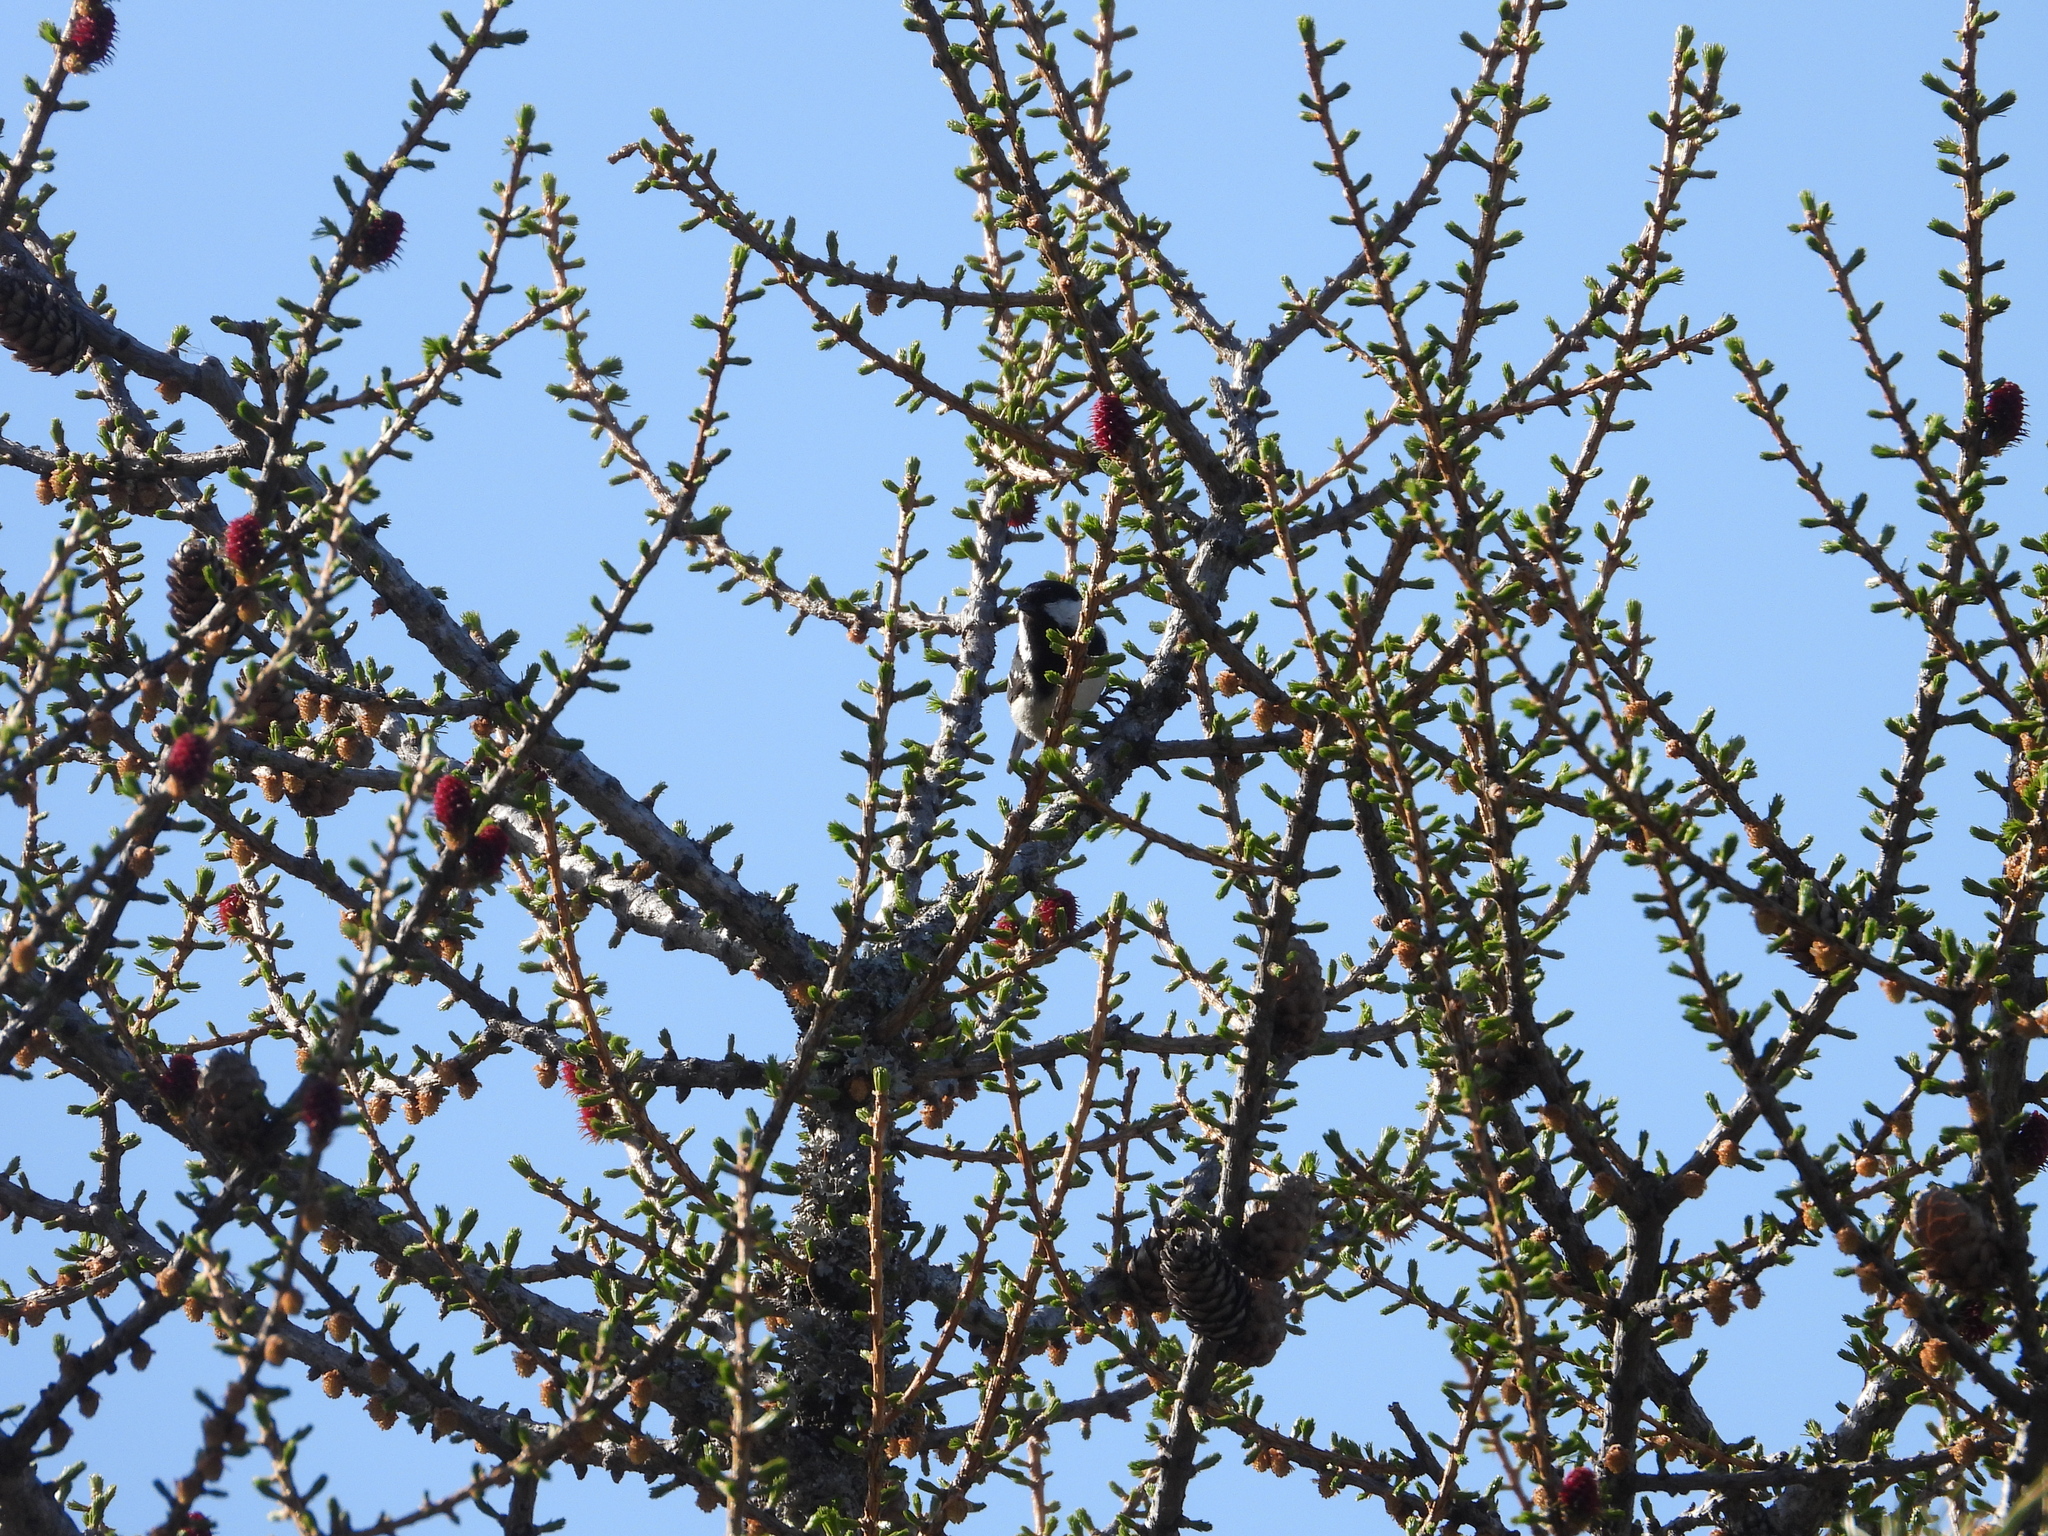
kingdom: Animalia
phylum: Chordata
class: Aves
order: Passeriformes
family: Paridae
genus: Periparus
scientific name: Periparus ater
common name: Coal tit
